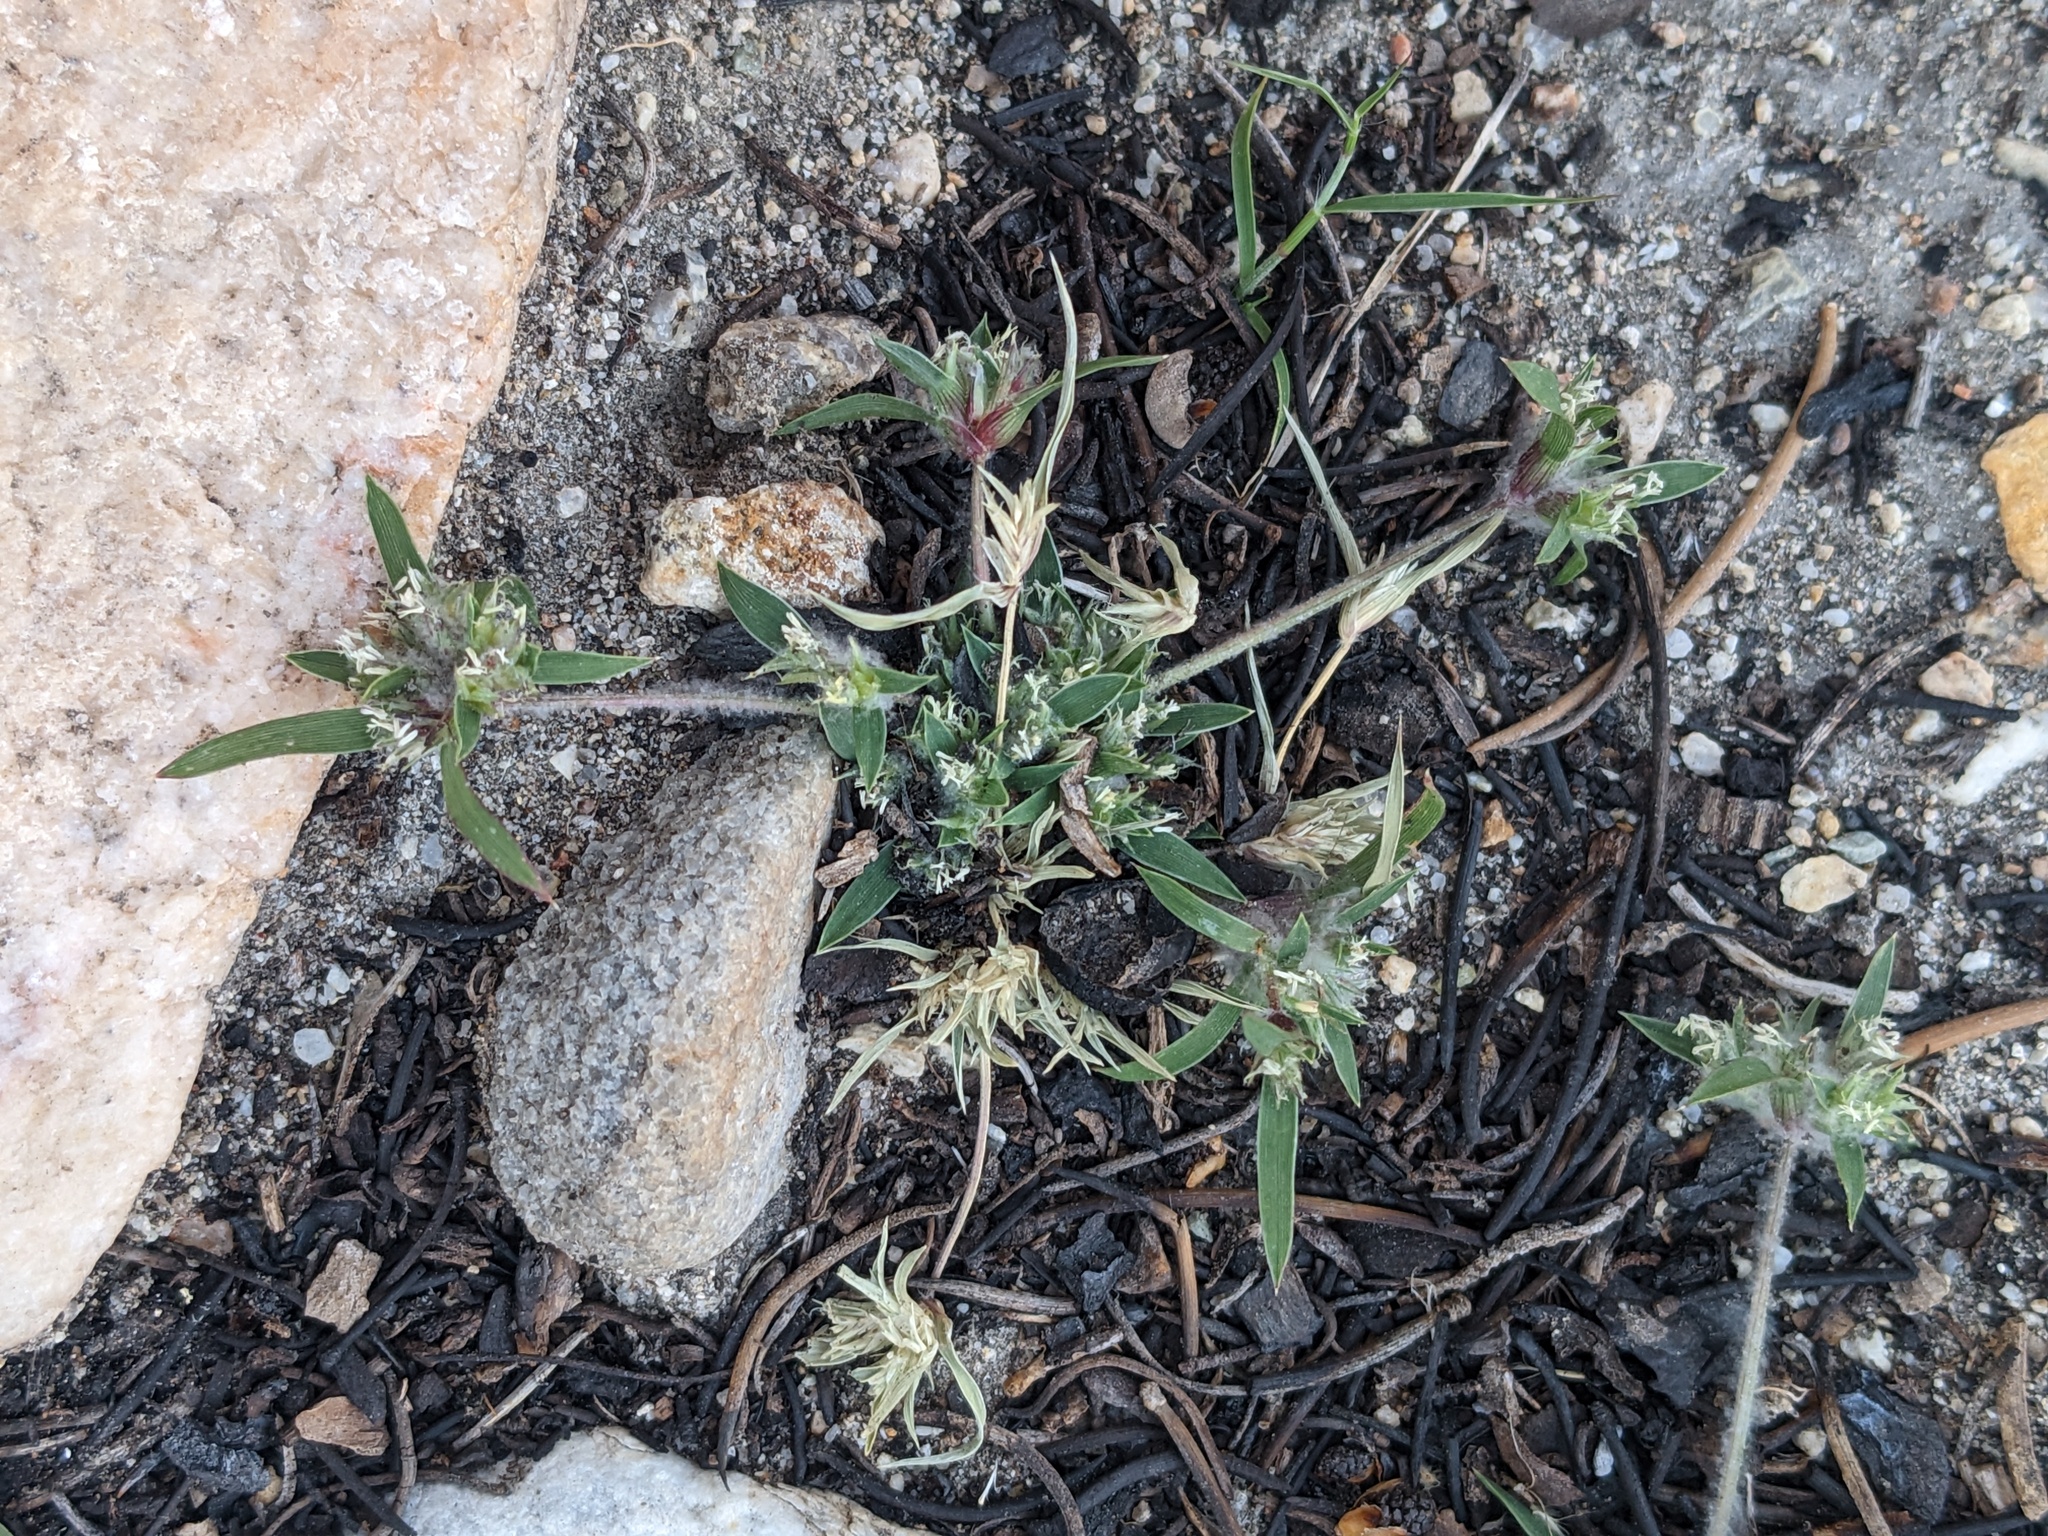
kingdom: Plantae
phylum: Tracheophyta
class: Liliopsida
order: Poales
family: Poaceae
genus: Munroa
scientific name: Munroa squarrosa
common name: False buffalo grass
